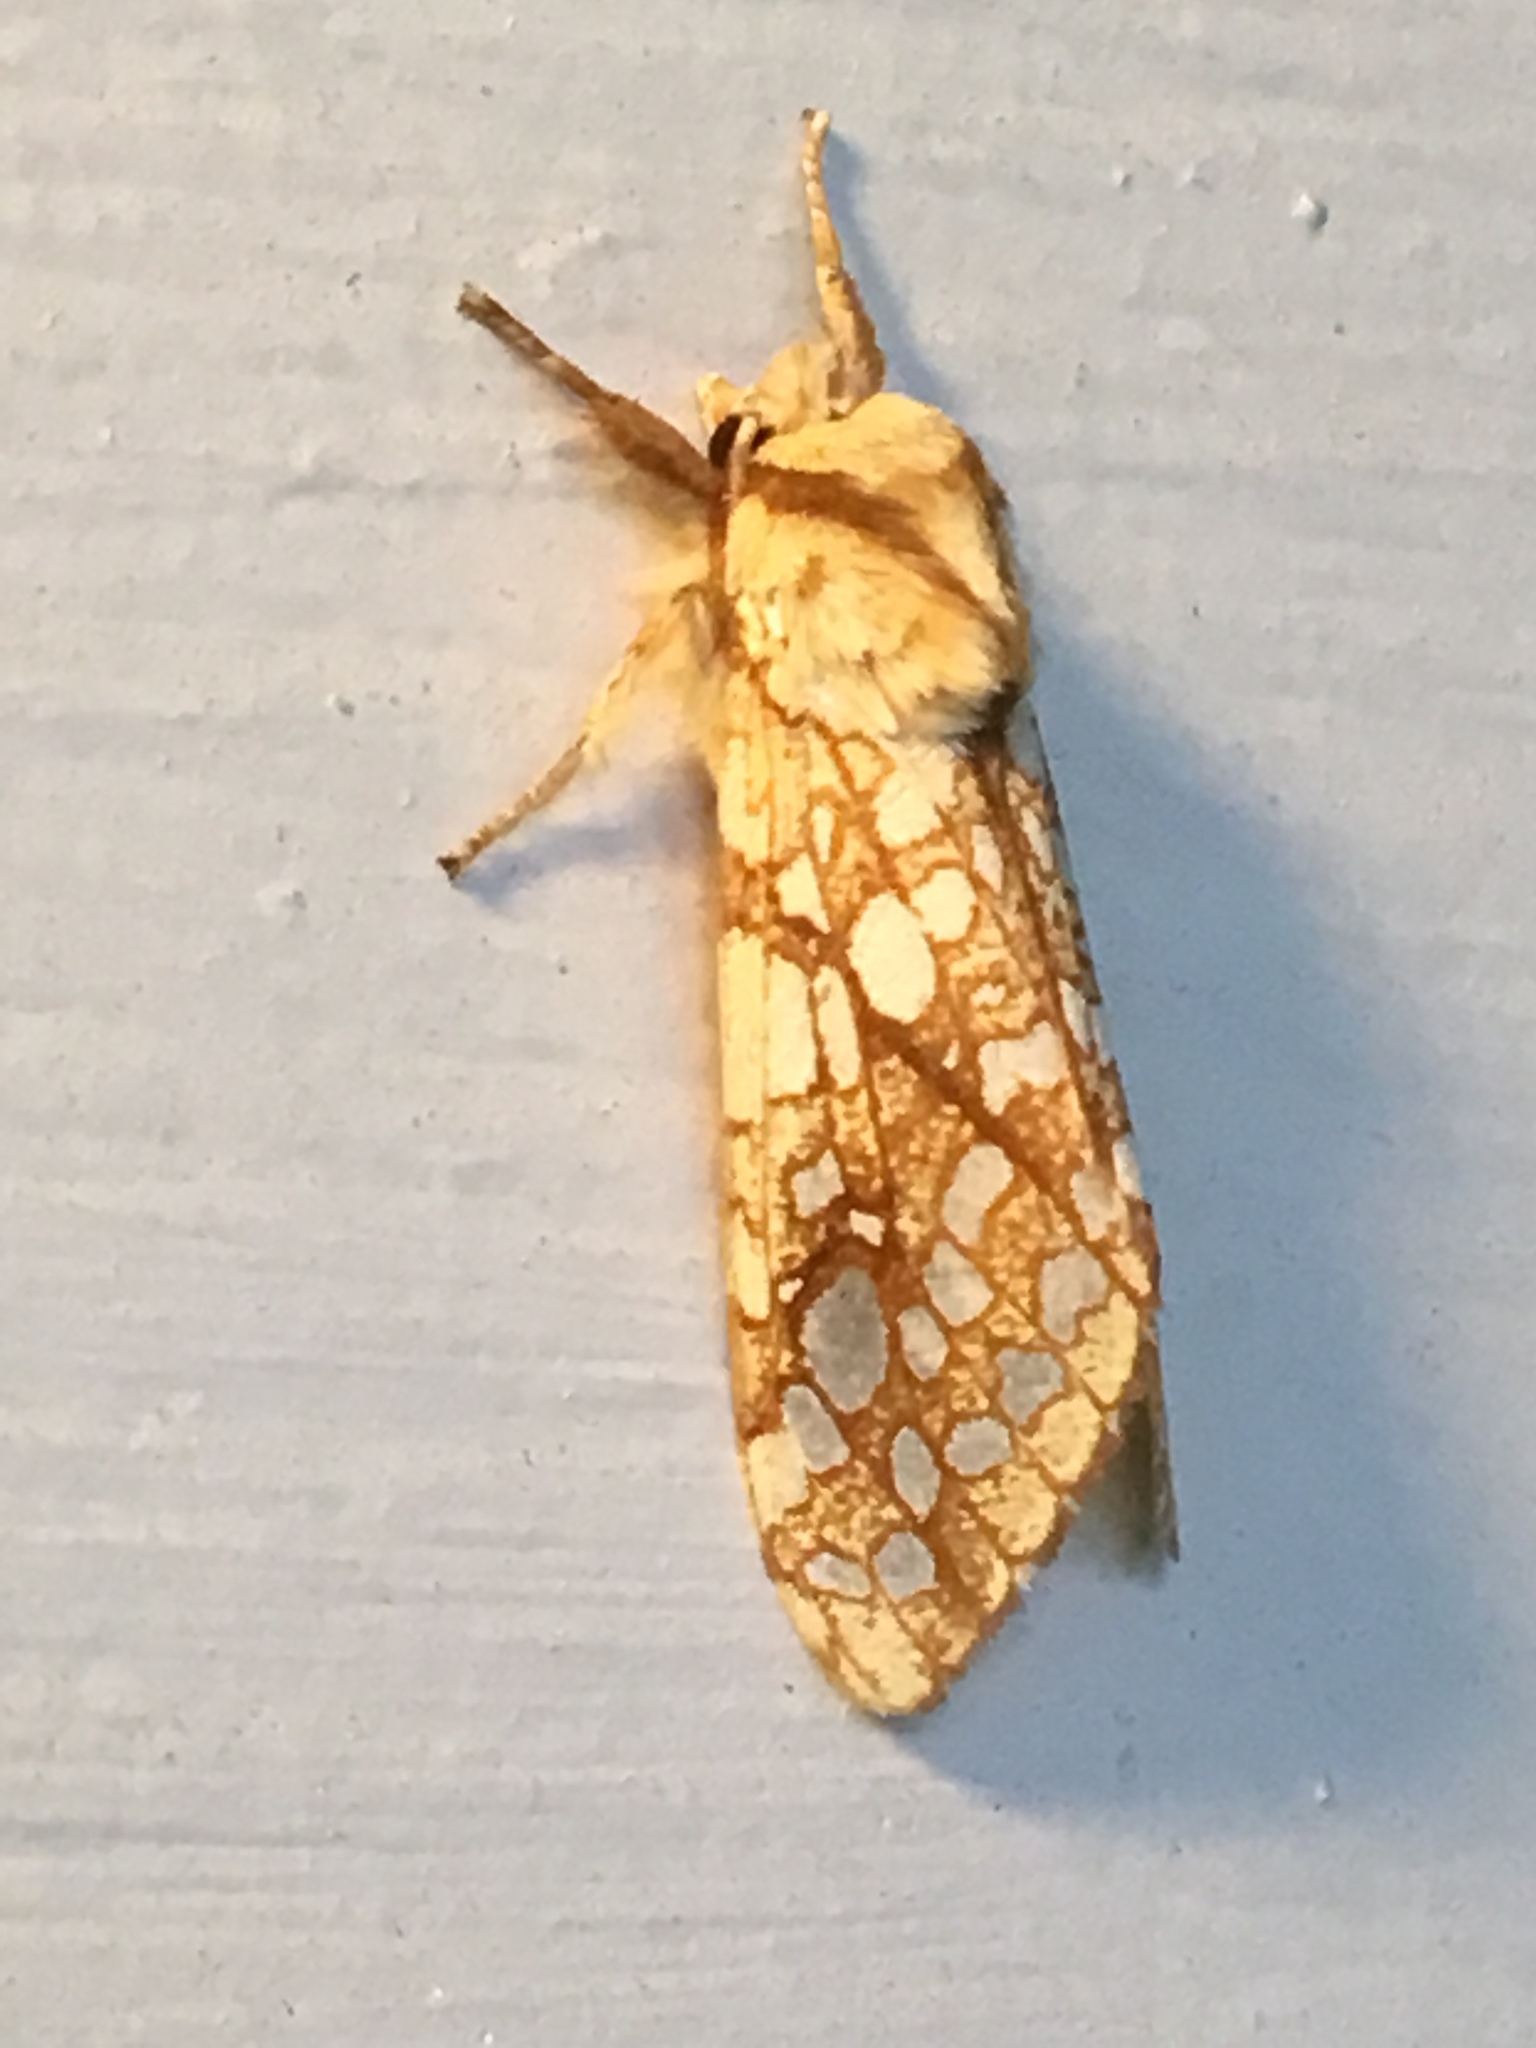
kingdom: Animalia
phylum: Arthropoda
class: Insecta
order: Lepidoptera
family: Erebidae
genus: Lophocampa
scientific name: Lophocampa caryae
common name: Hickory tussock moth
